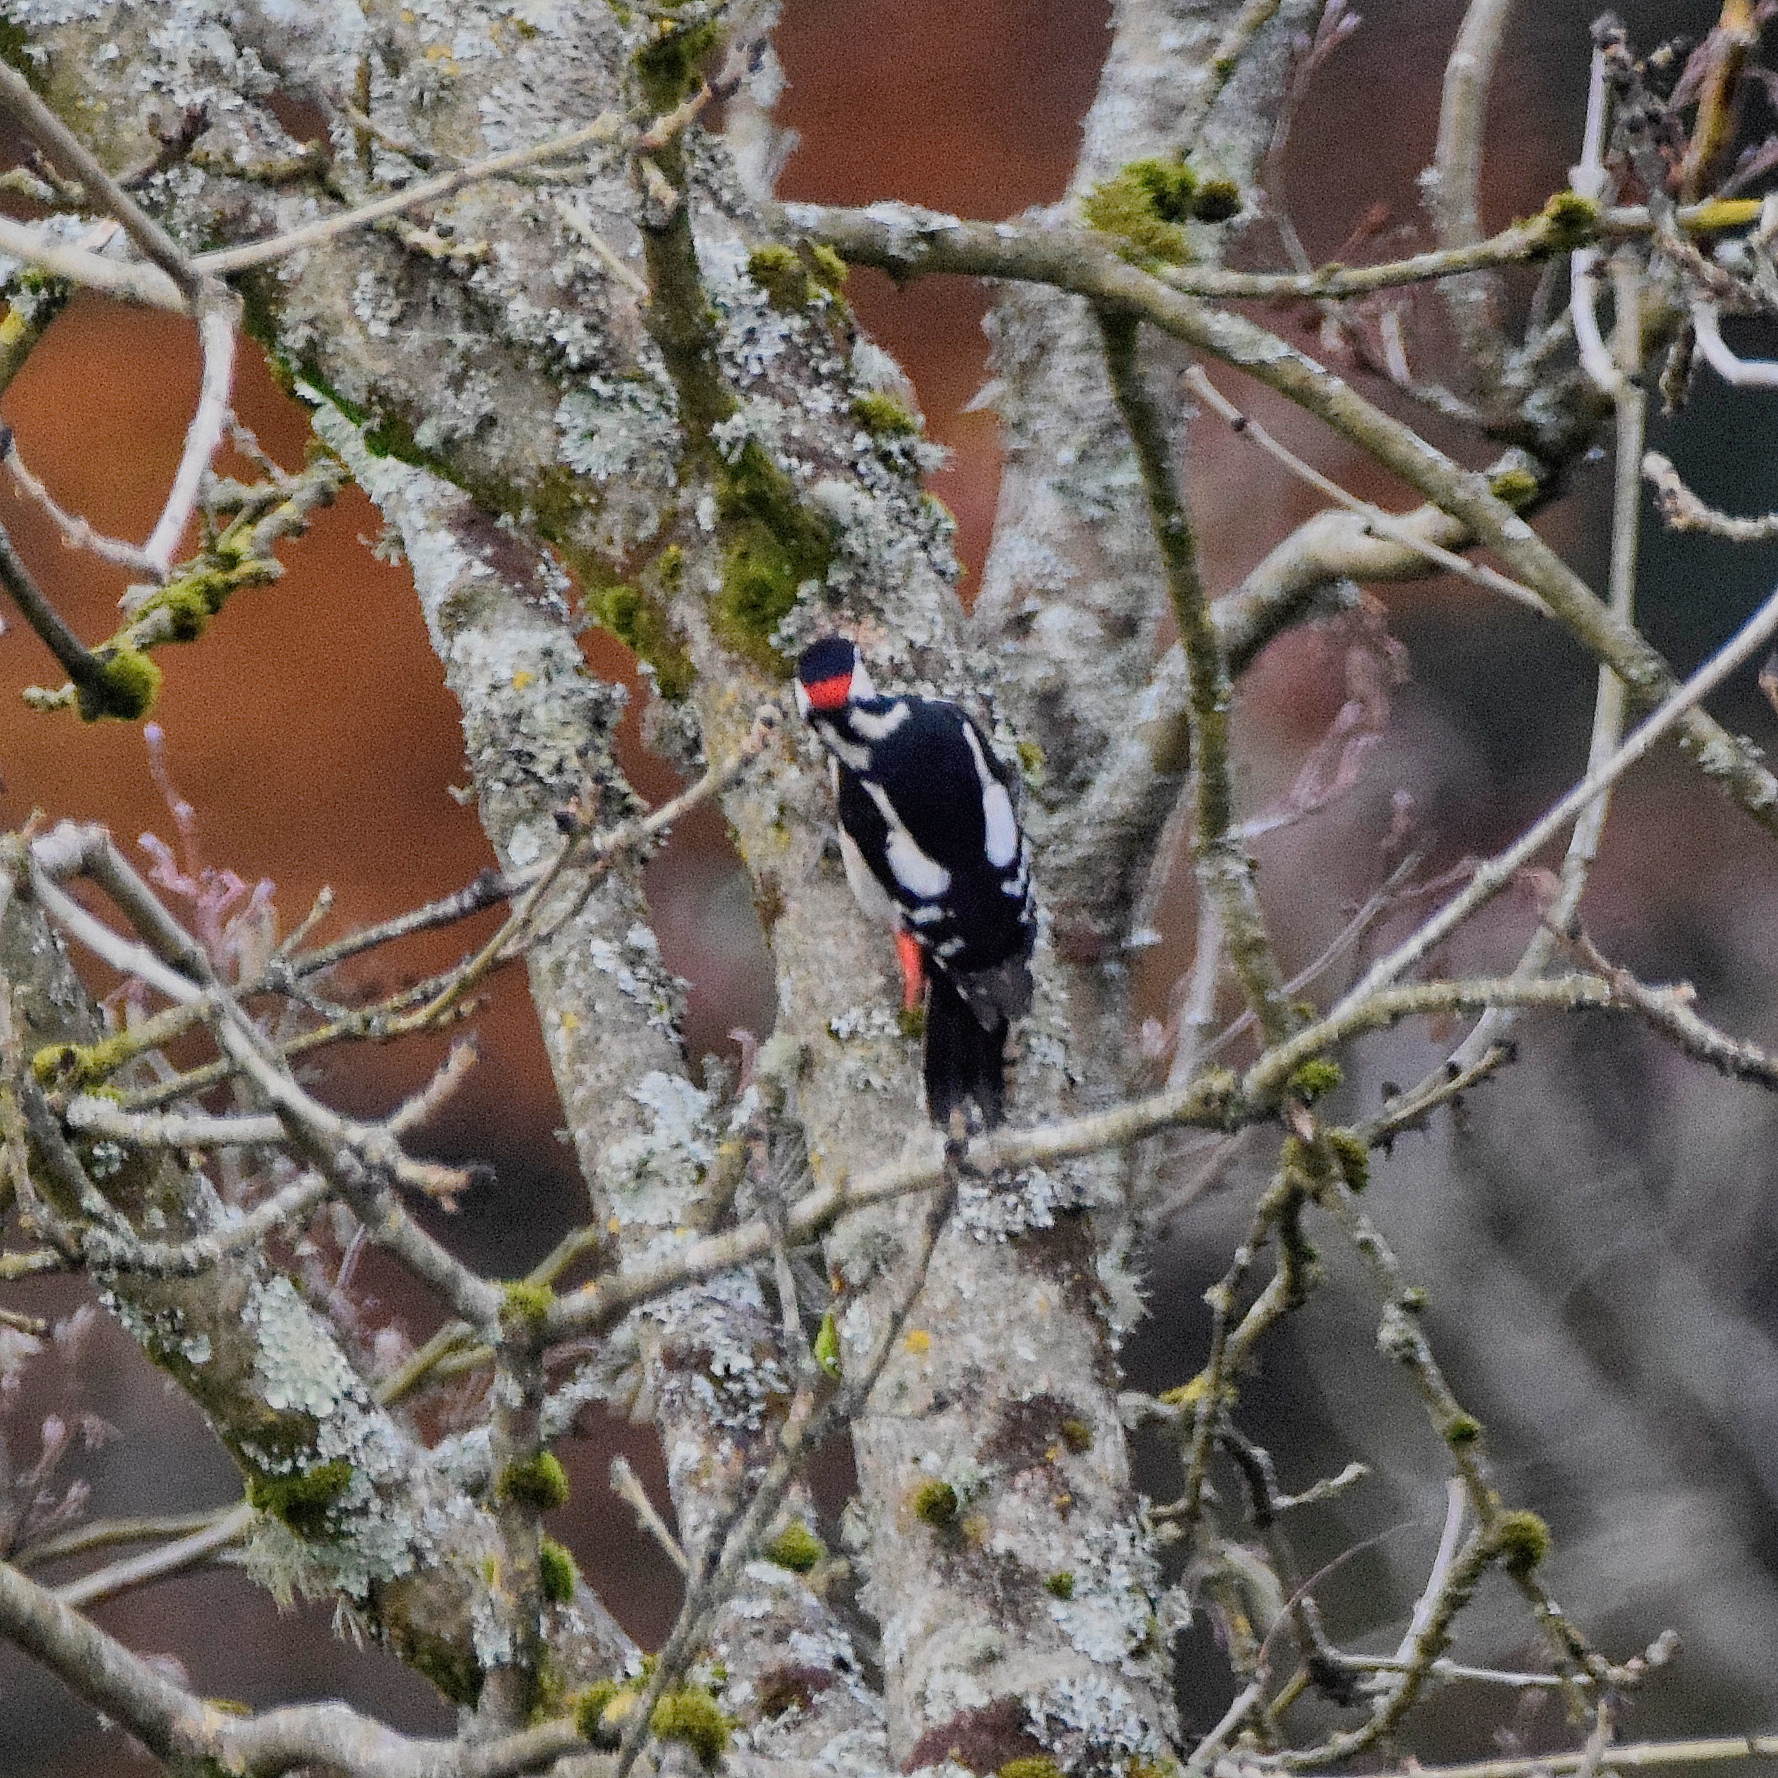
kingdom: Animalia
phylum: Chordata
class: Aves
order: Piciformes
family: Picidae
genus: Dendrocopos
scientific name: Dendrocopos major
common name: Great spotted woodpecker
